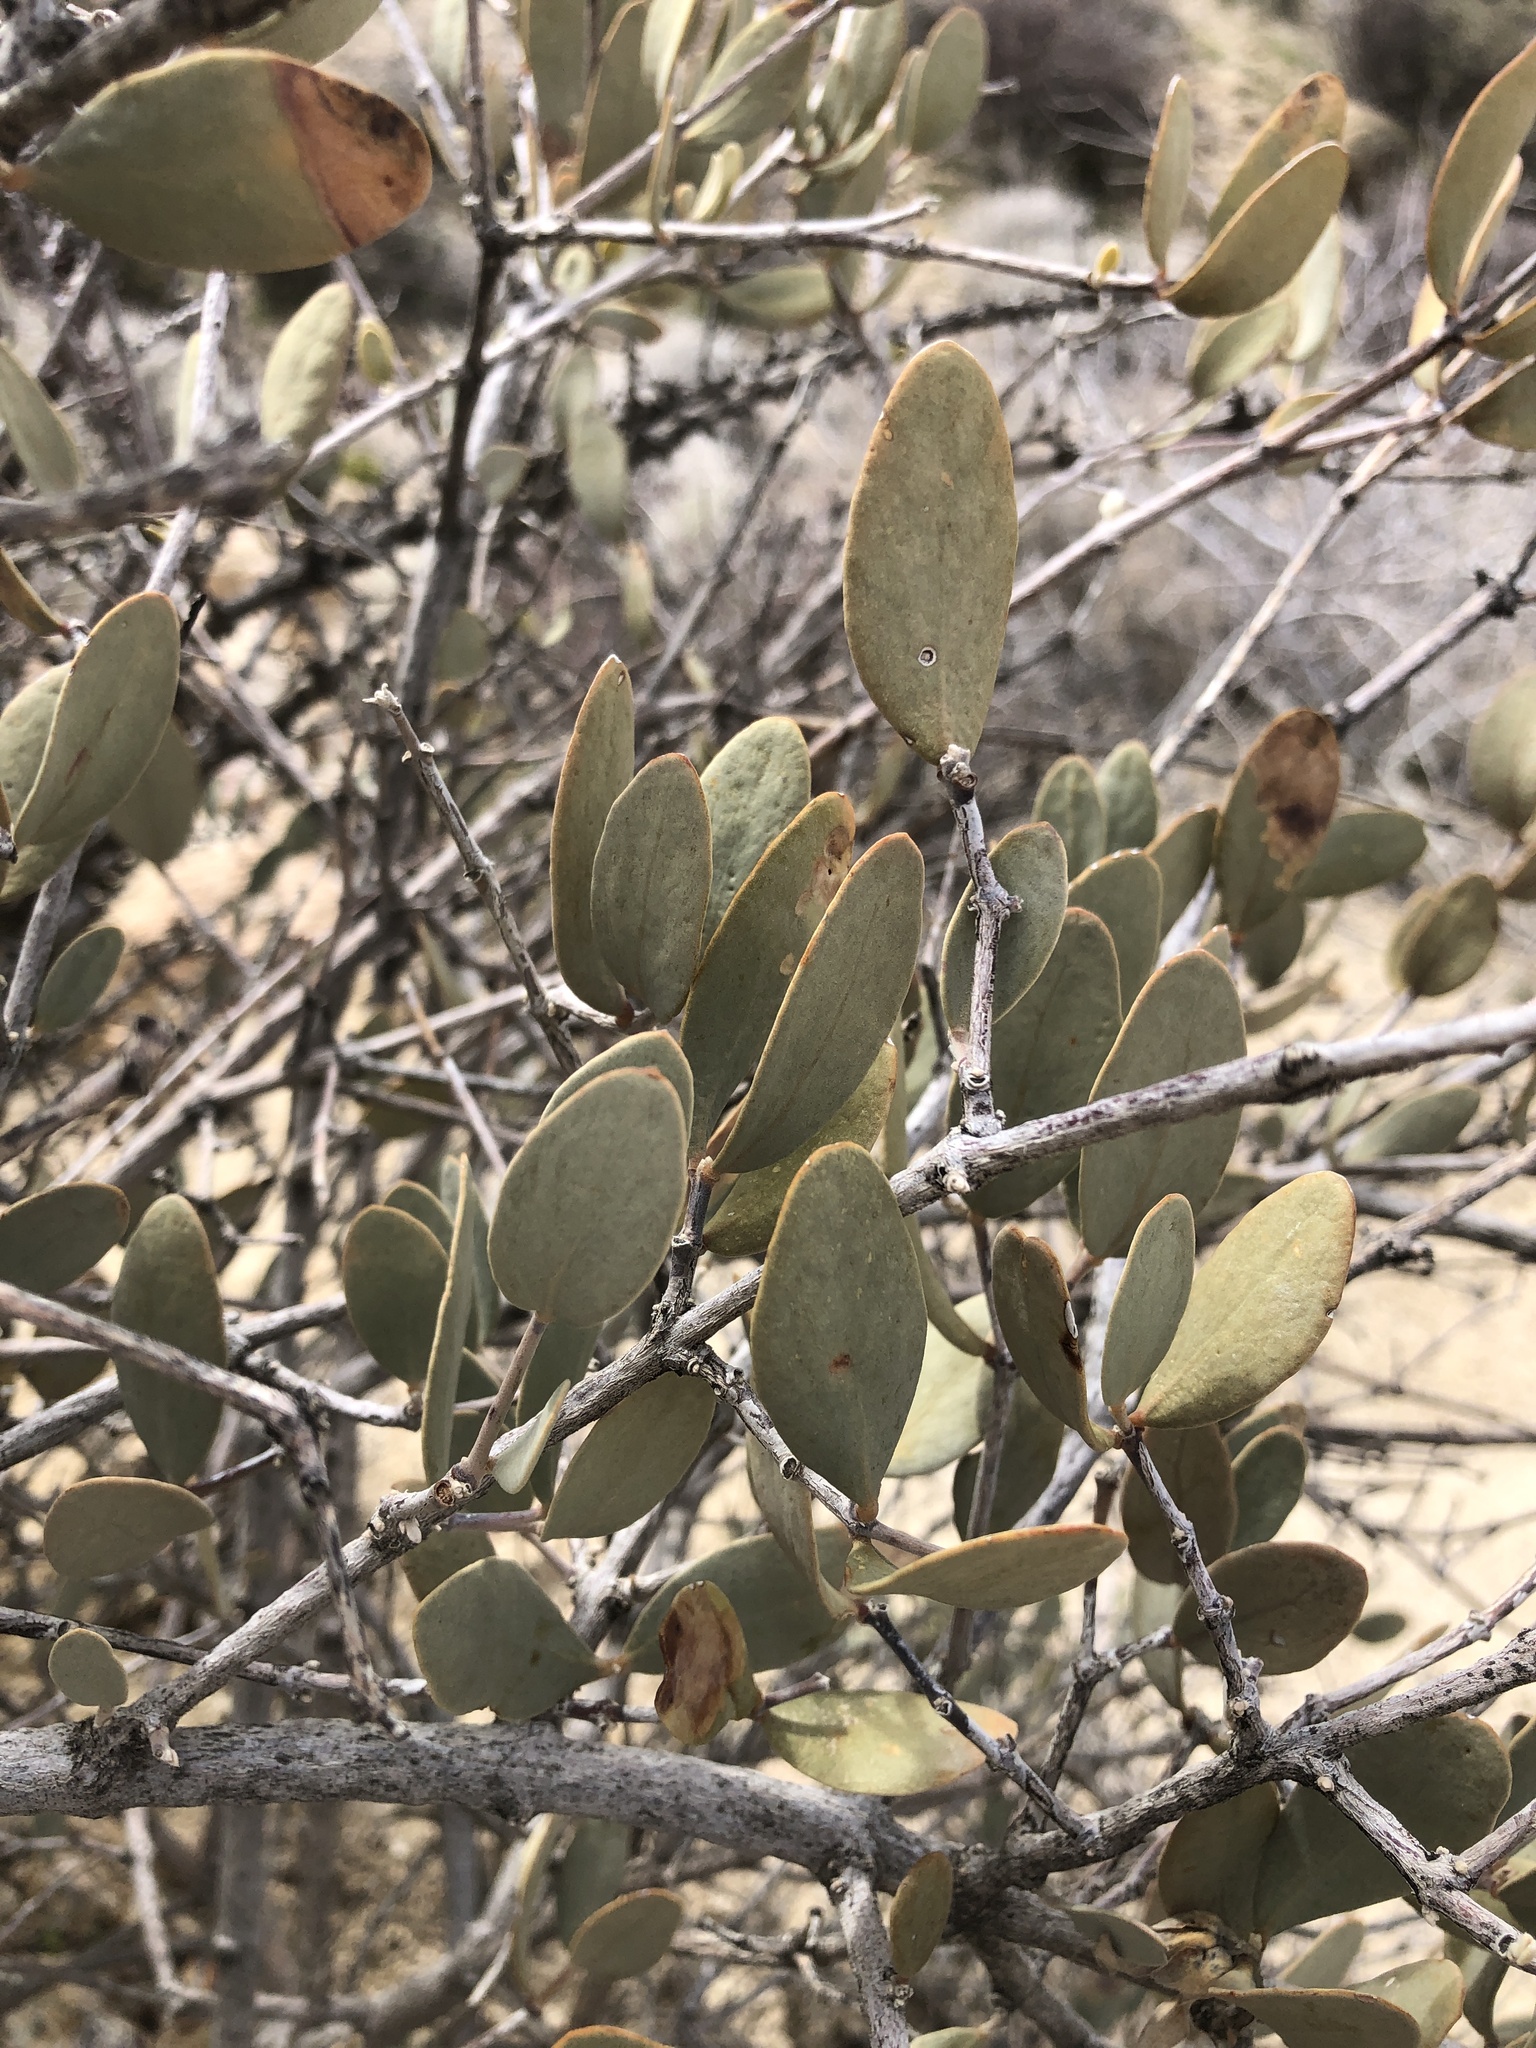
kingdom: Plantae
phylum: Tracheophyta
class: Magnoliopsida
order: Caryophyllales
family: Simmondsiaceae
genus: Simmondsia
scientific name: Simmondsia chinensis
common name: Jojoba
